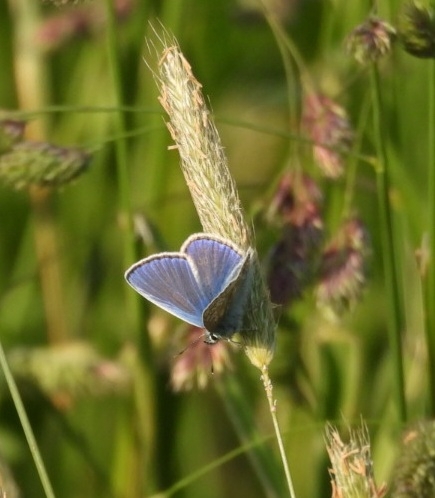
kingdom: Animalia
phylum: Arthropoda
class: Insecta
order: Lepidoptera
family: Lycaenidae
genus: Polyommatus
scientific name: Polyommatus icarus
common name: Common blue
